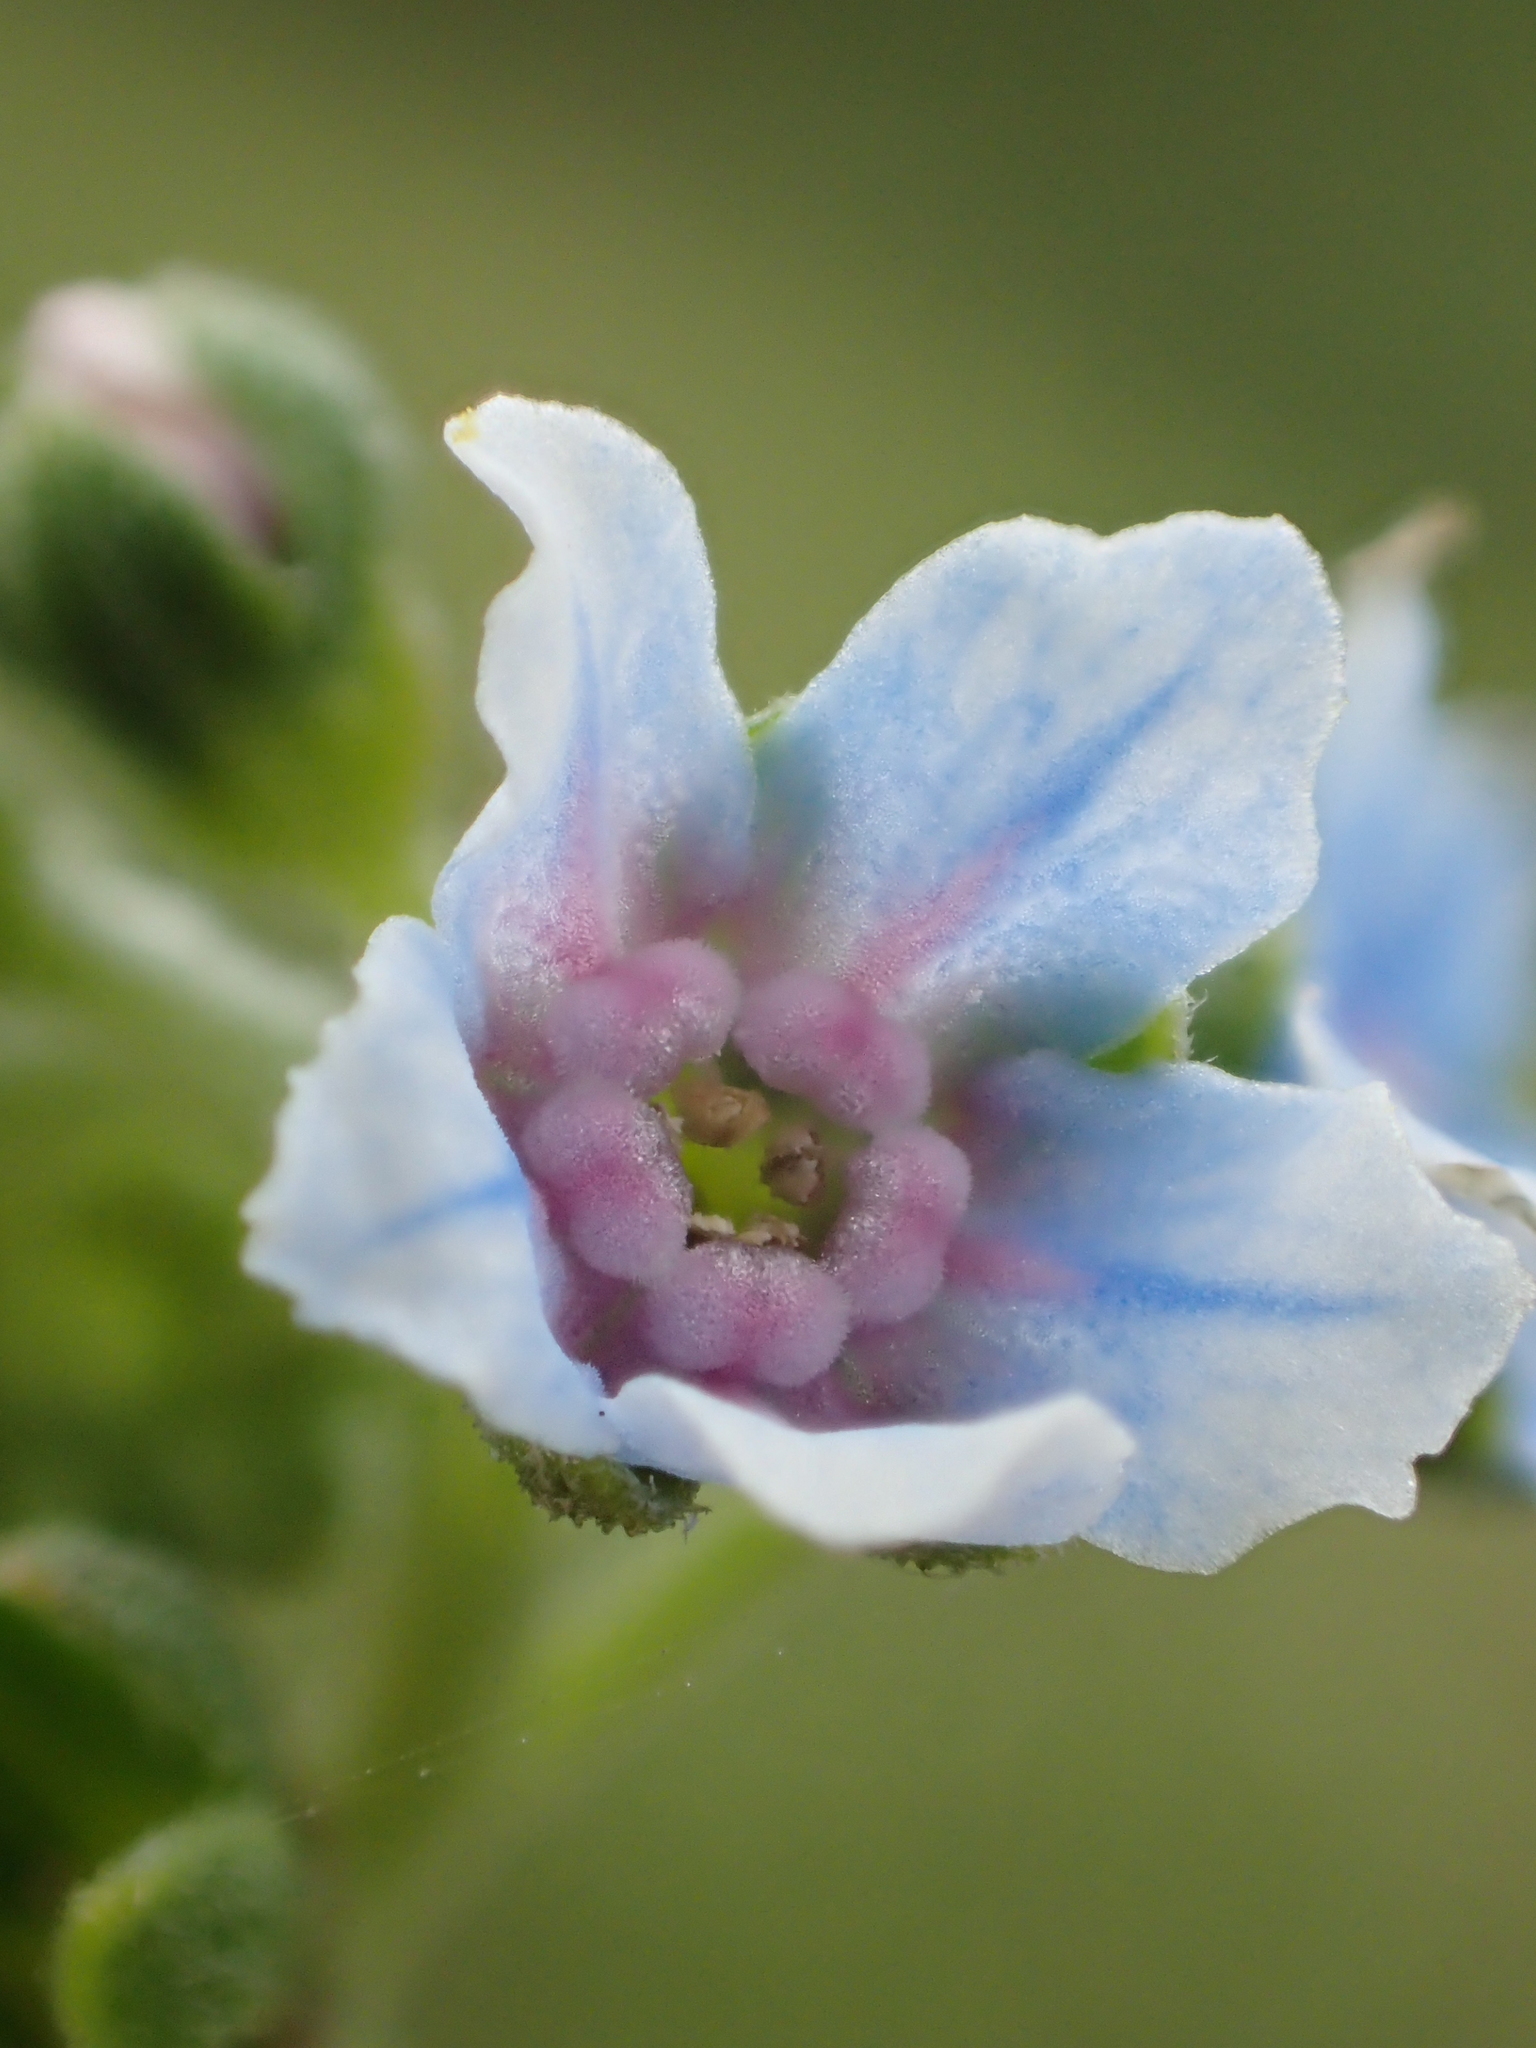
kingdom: Plantae
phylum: Tracheophyta
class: Magnoliopsida
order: Boraginales
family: Boraginaceae
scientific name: Boraginaceae
